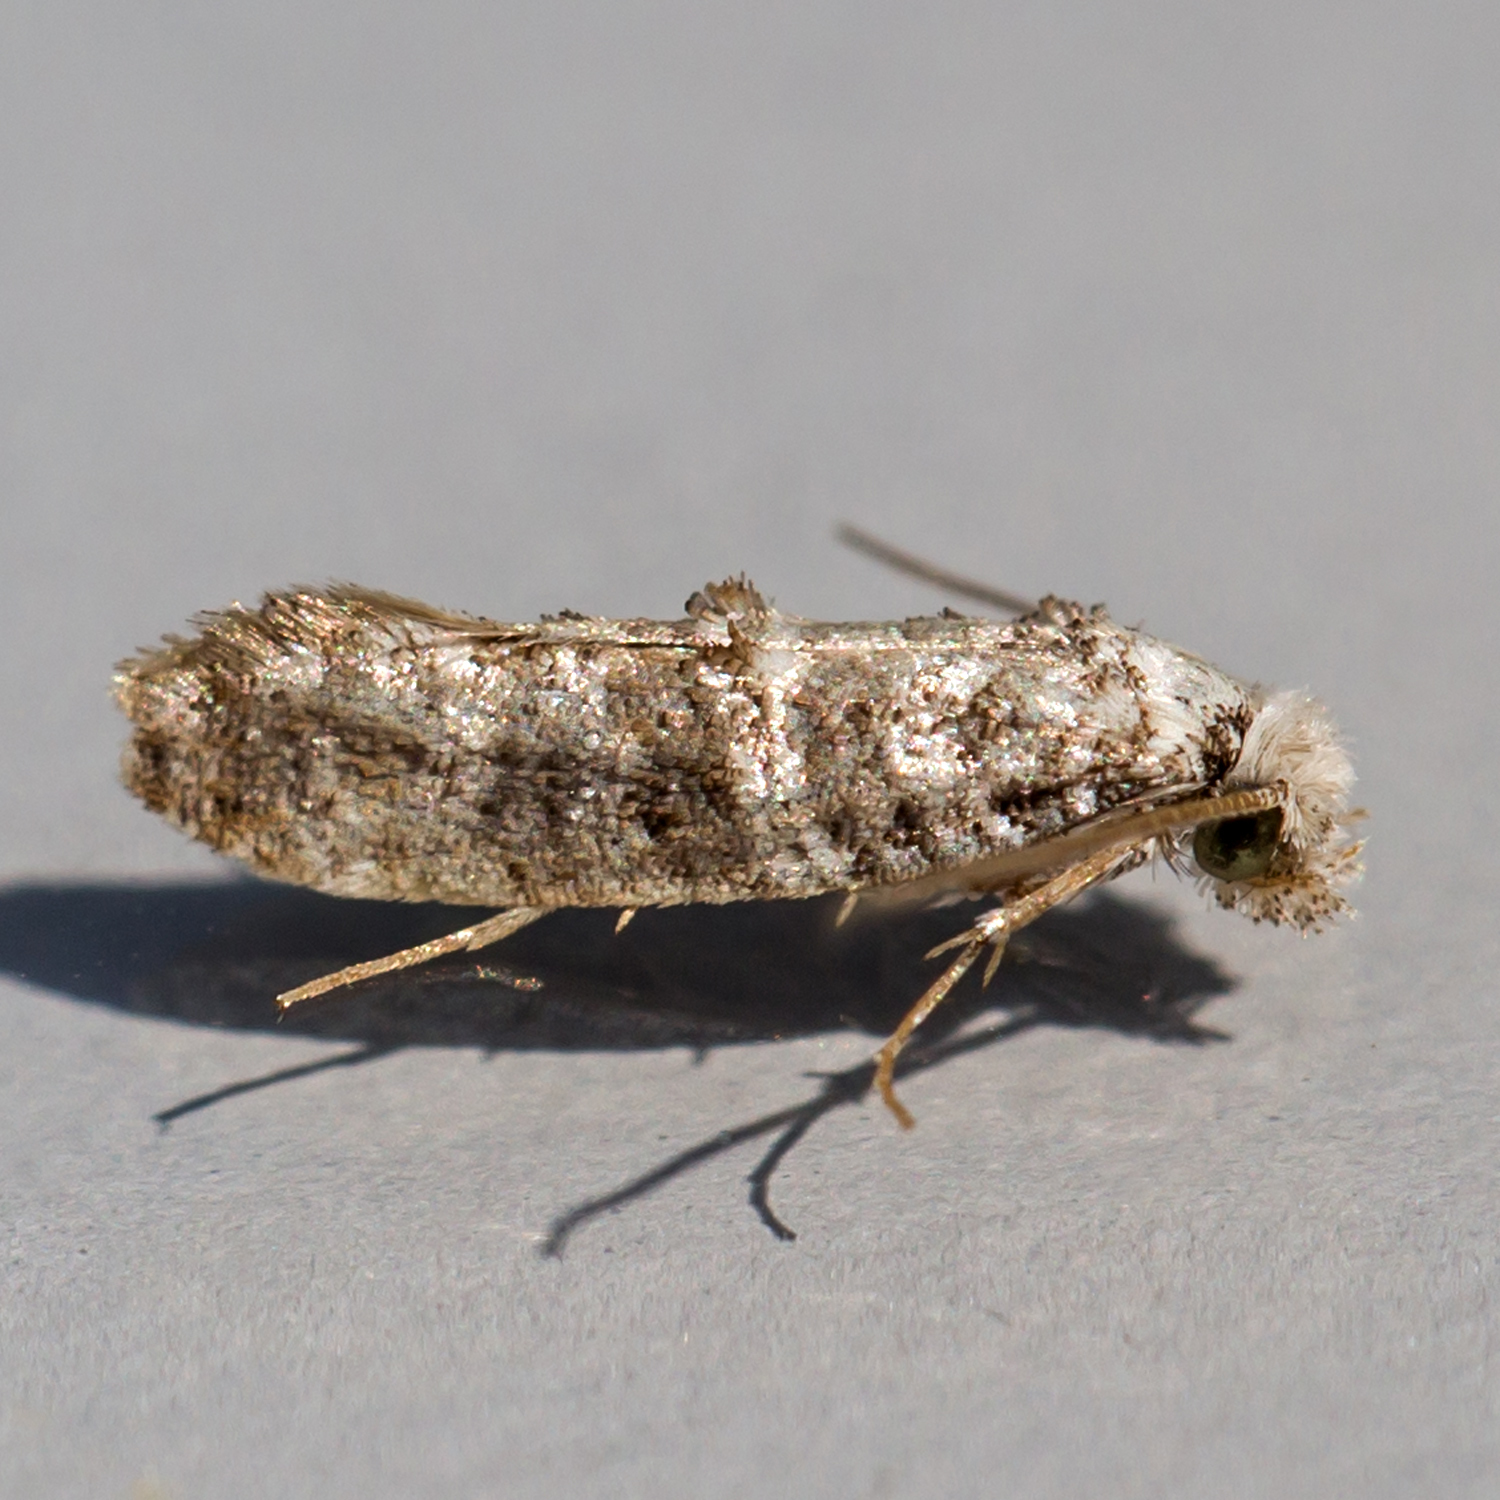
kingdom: Animalia
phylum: Arthropoda
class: Insecta
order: Lepidoptera
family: Tineidae
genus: Xylesthia
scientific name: Xylesthia pruniramiella
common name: Clemens' bark moth
